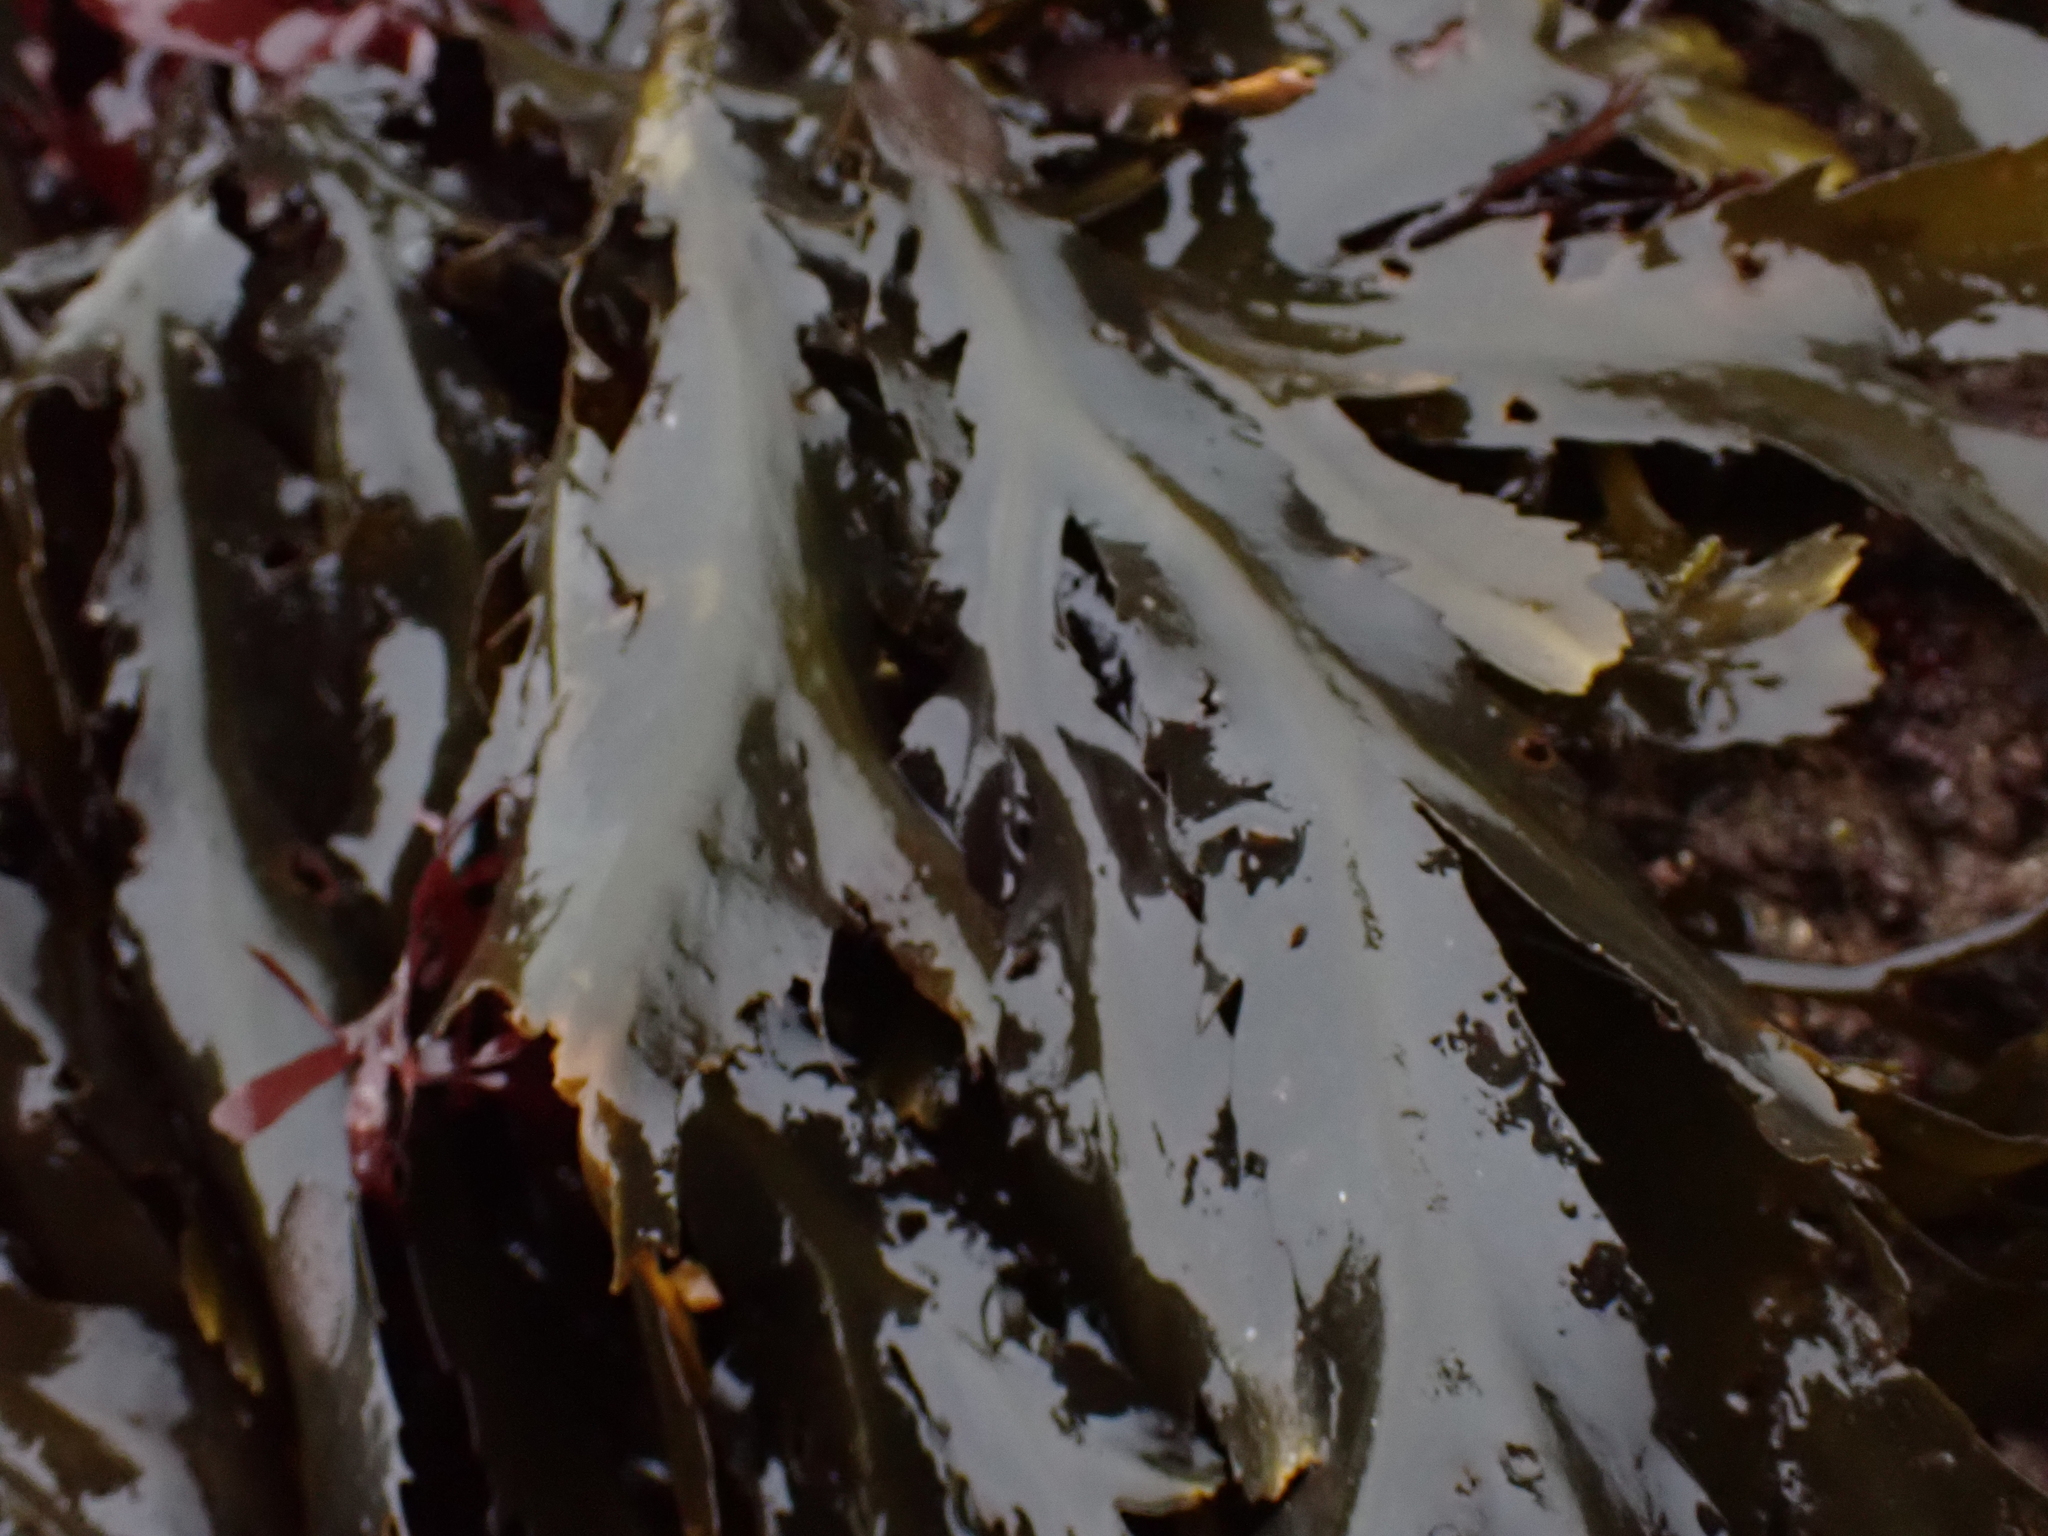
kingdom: Chromista
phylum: Ochrophyta
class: Phaeophyceae
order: Fucales
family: Fucaceae
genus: Fucus
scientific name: Fucus serratus
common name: Toothed wrack
